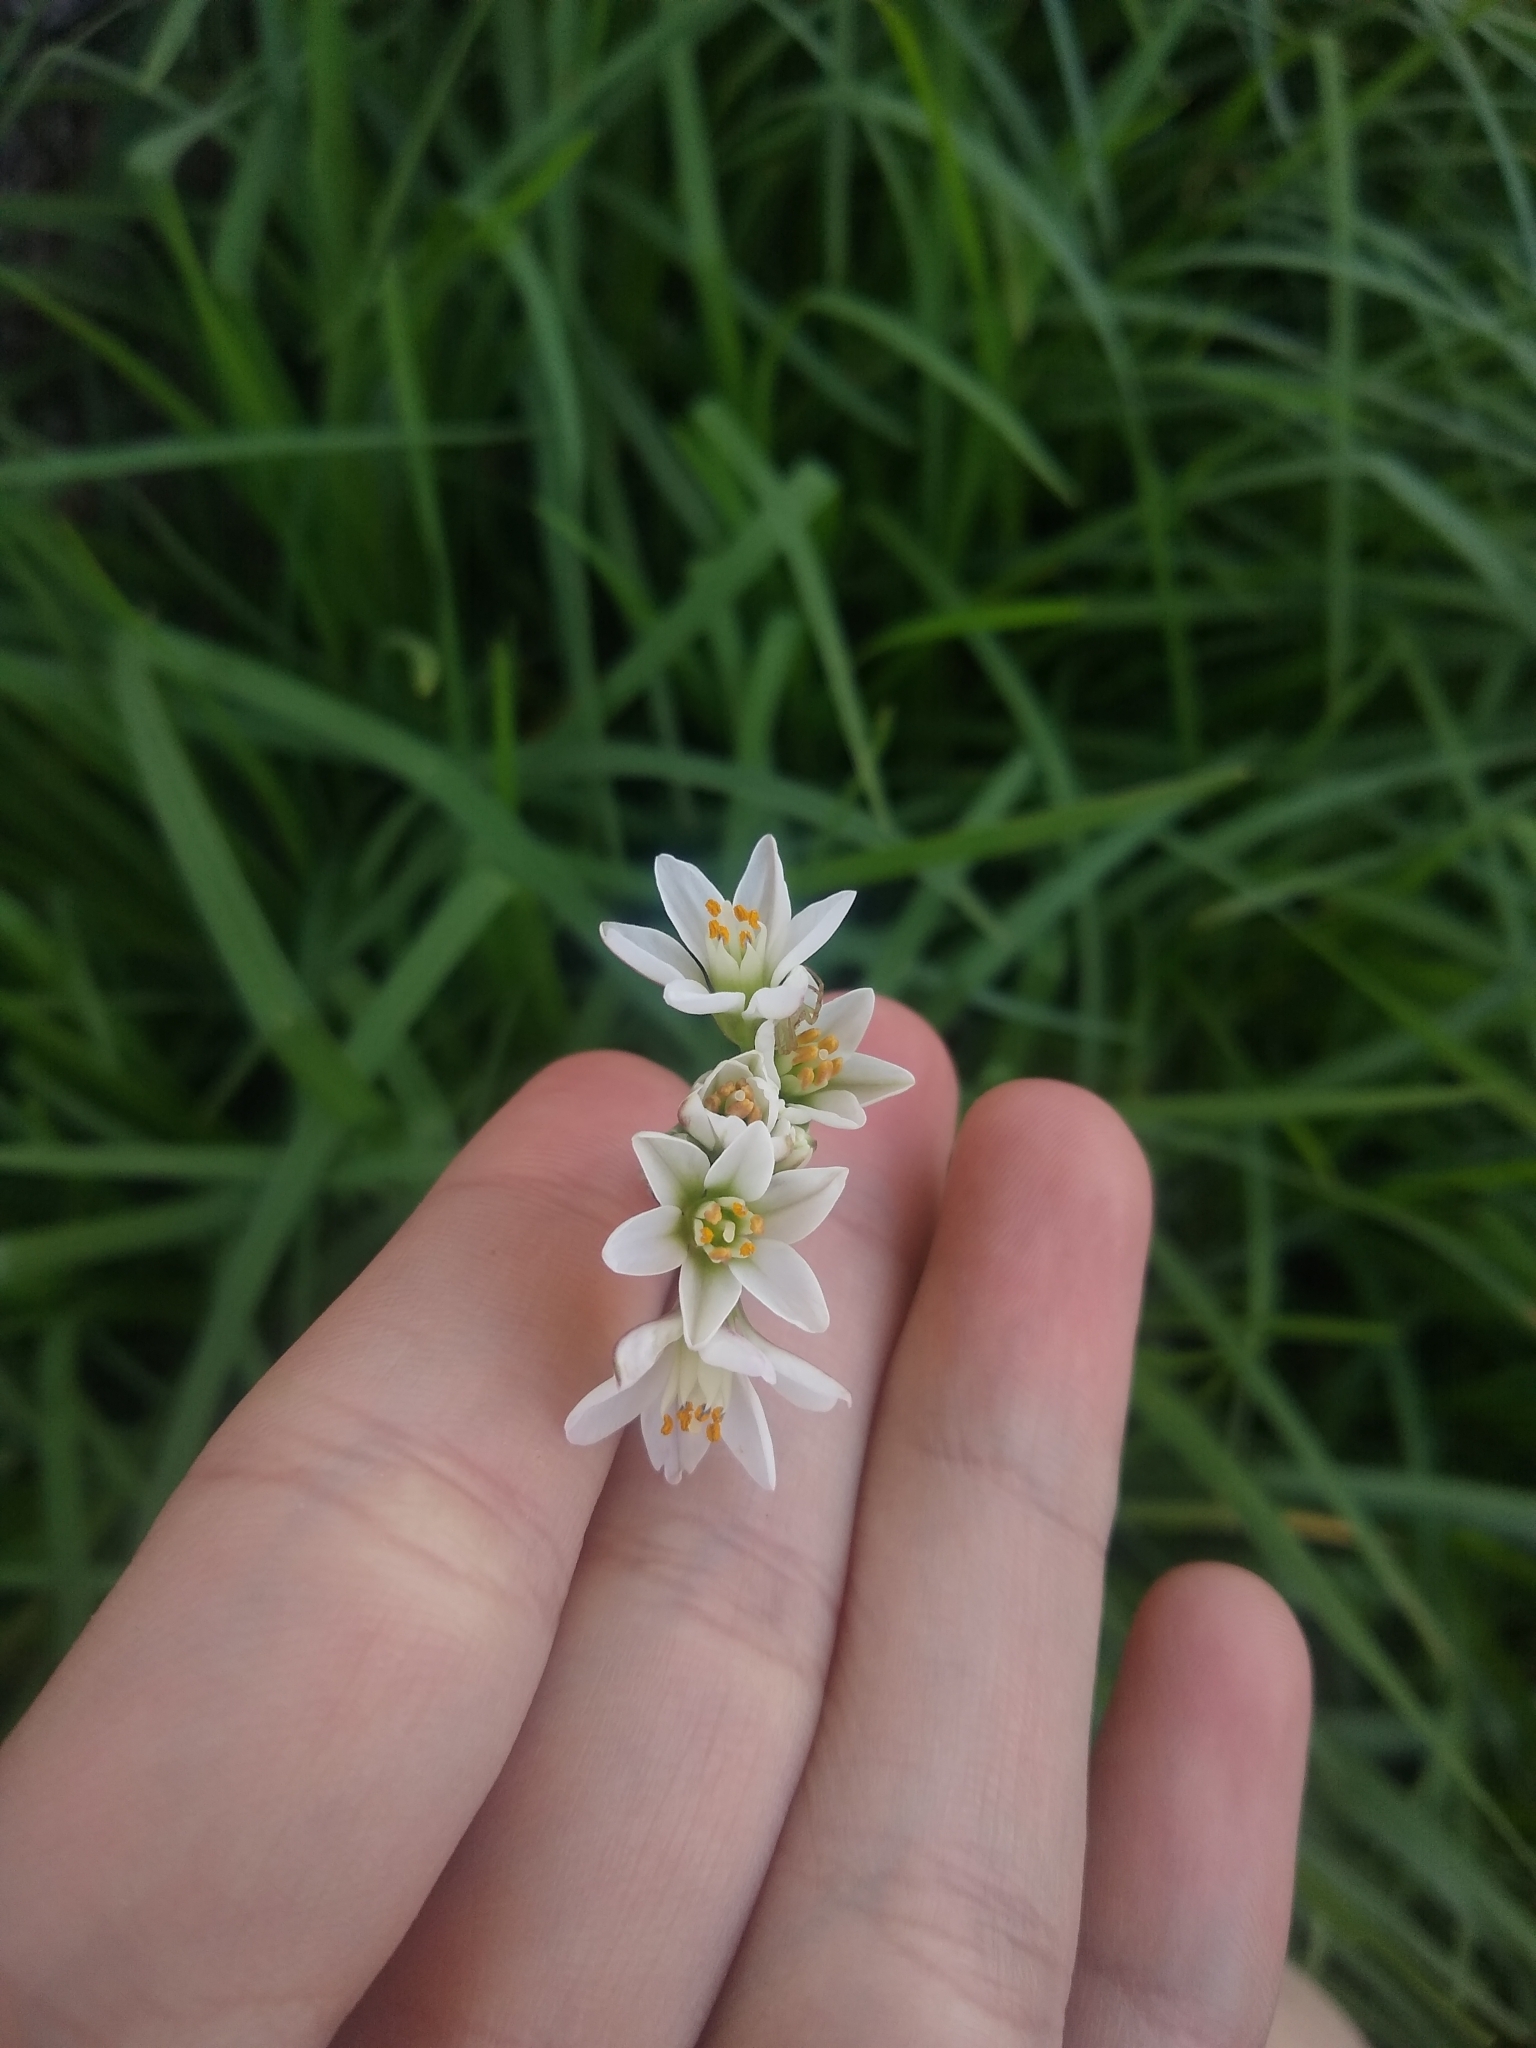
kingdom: Plantae
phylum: Tracheophyta
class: Liliopsida
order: Asparagales
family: Amaryllidaceae
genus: Nothoscordum
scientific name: Nothoscordum bivalve
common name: Crow-poison
